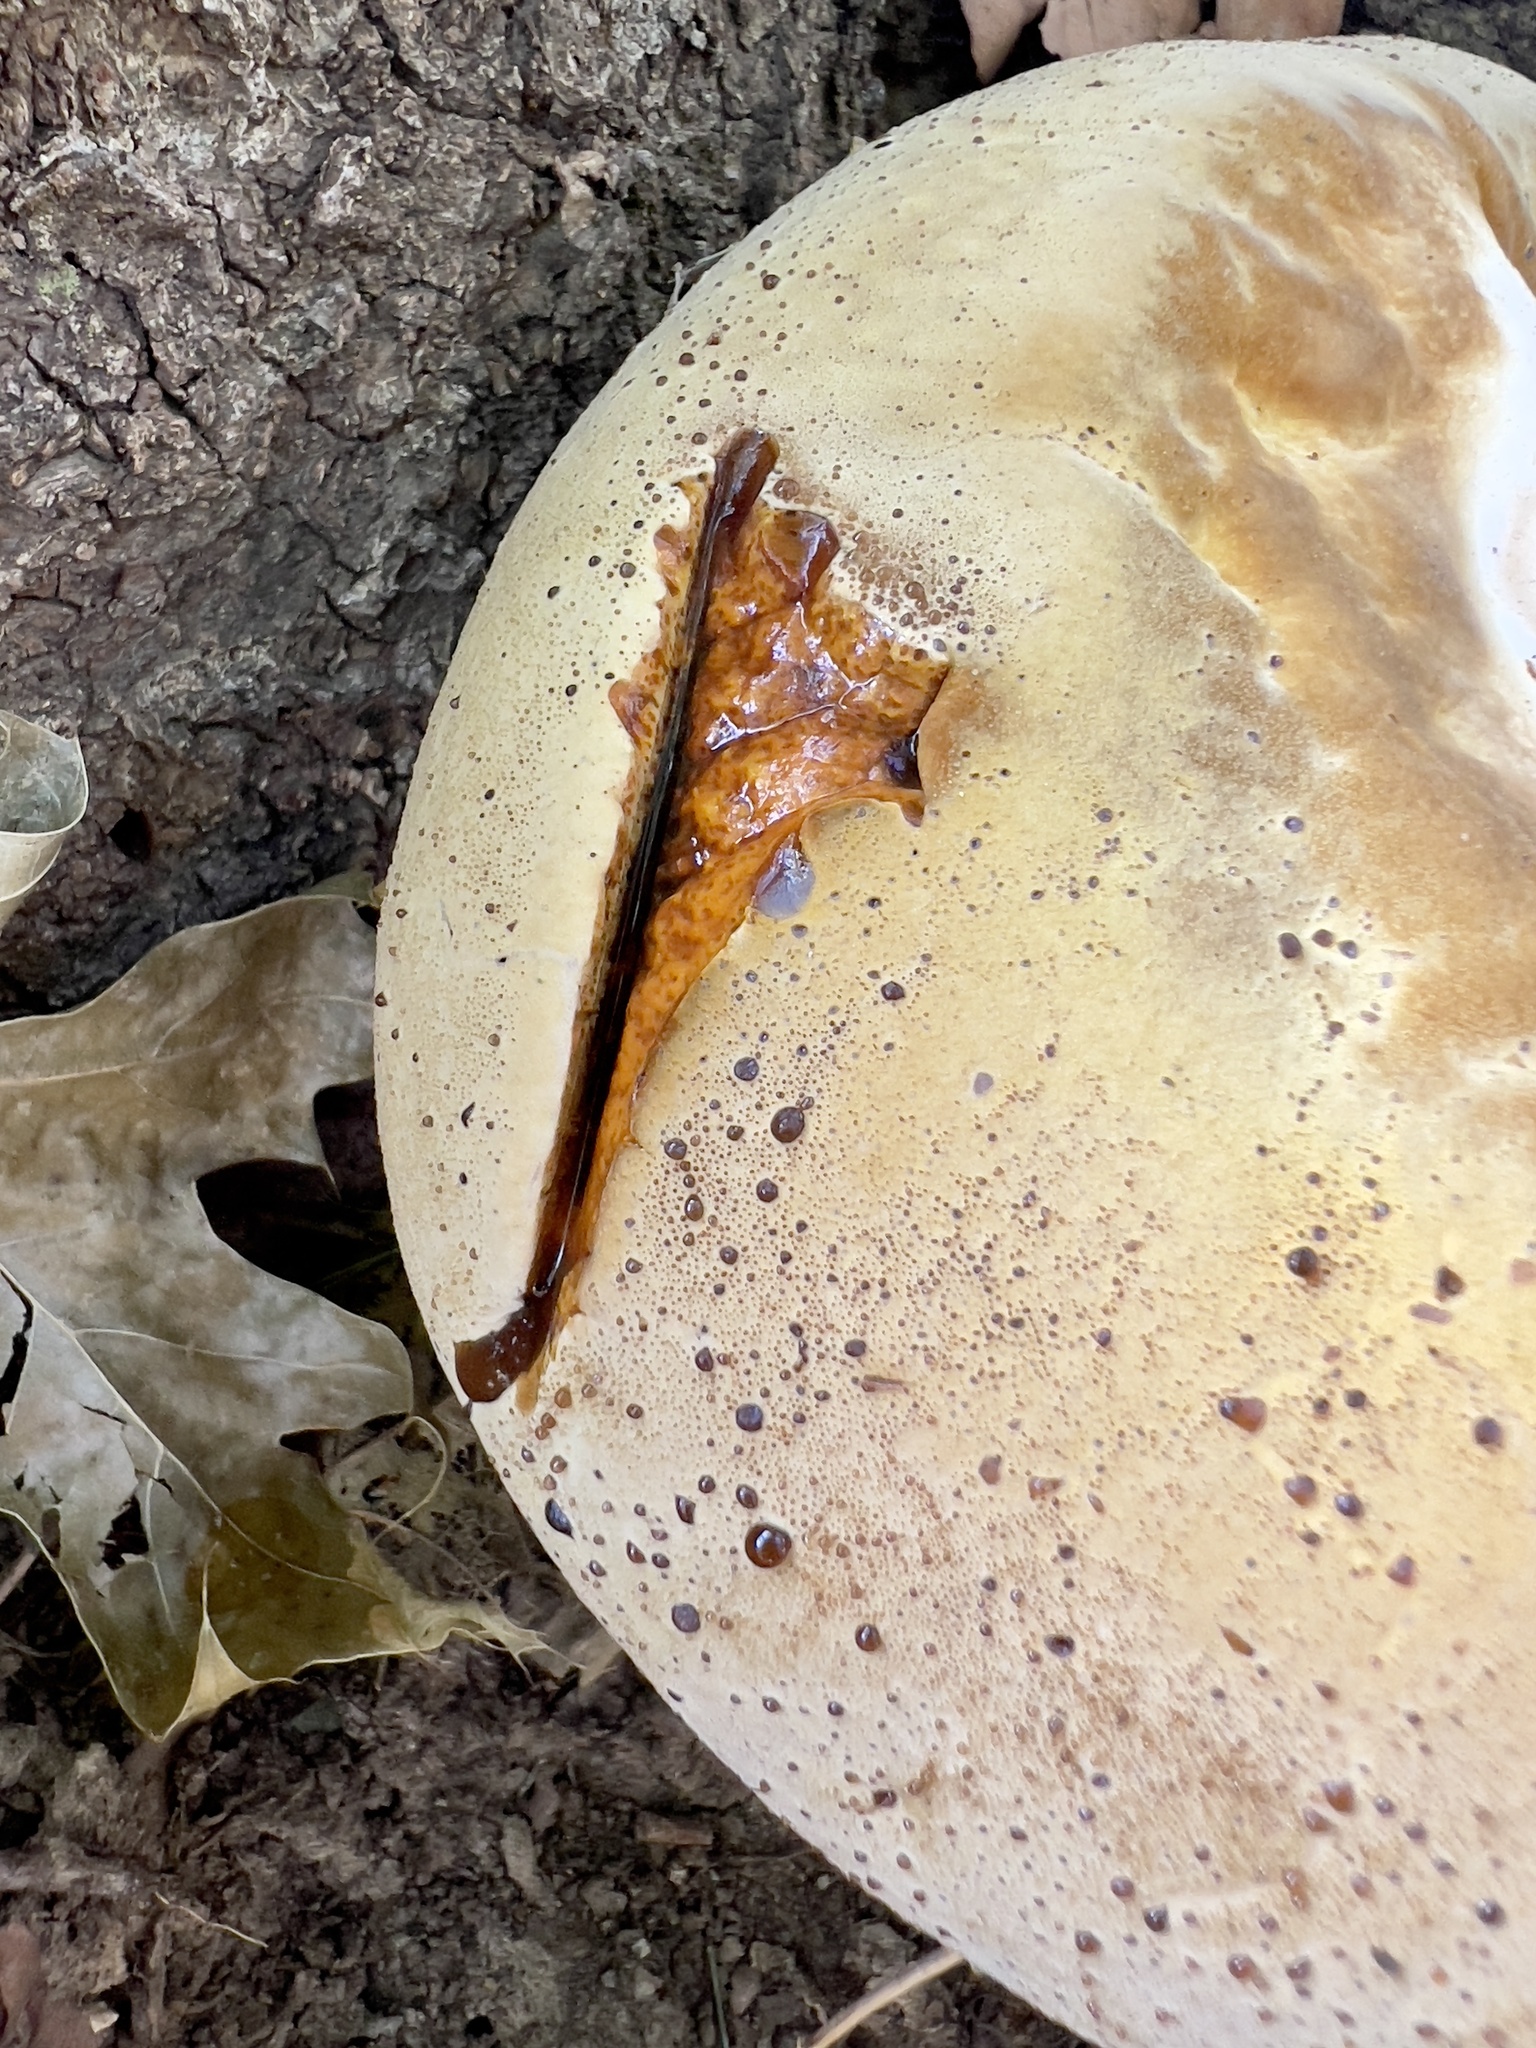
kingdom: Fungi
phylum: Basidiomycota
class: Agaricomycetes
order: Hymenochaetales
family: Hymenochaetaceae
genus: Pseudoinonotus
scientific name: Pseudoinonotus dryadeus
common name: Oak bracket
